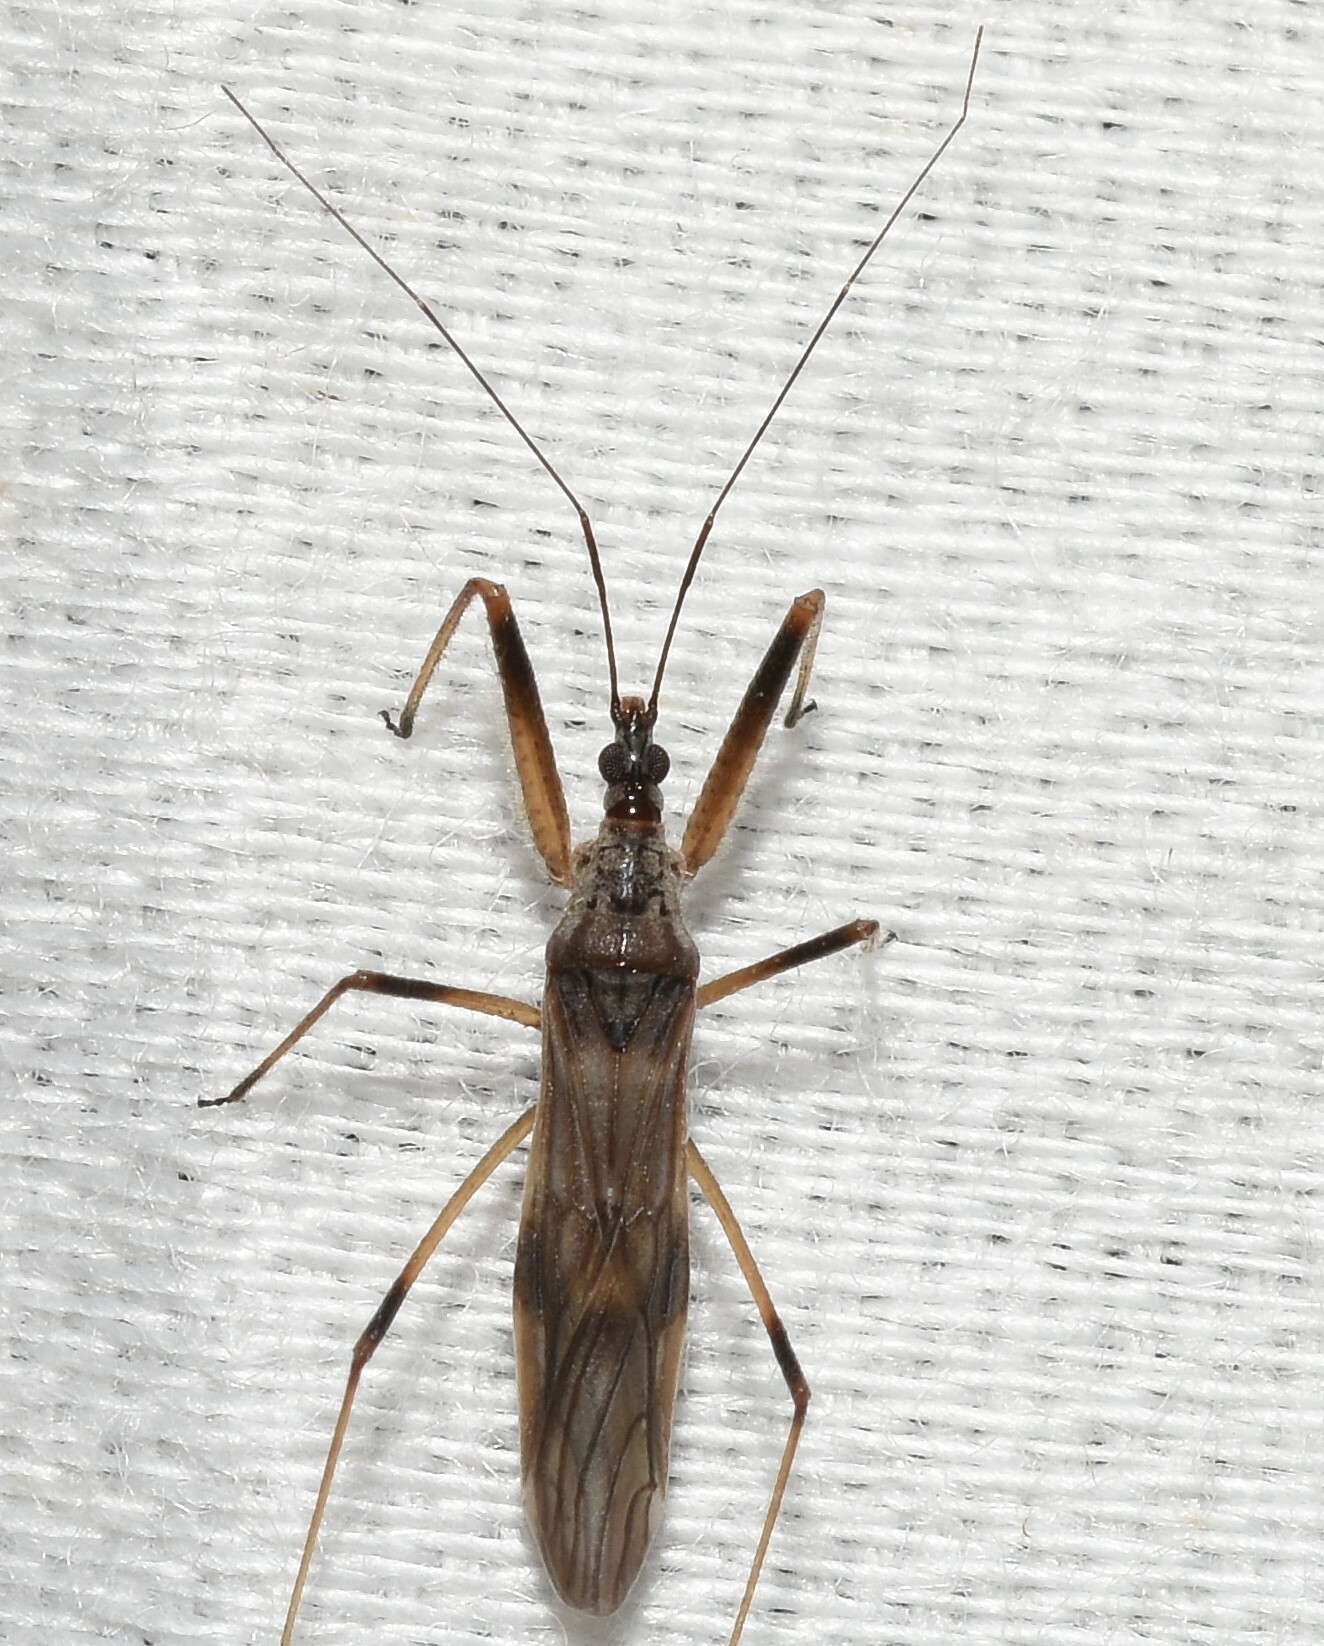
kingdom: Animalia
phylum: Arthropoda
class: Insecta
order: Hemiptera
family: Nabidae
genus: Metatropiphorus
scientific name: Metatropiphorus belfragii
